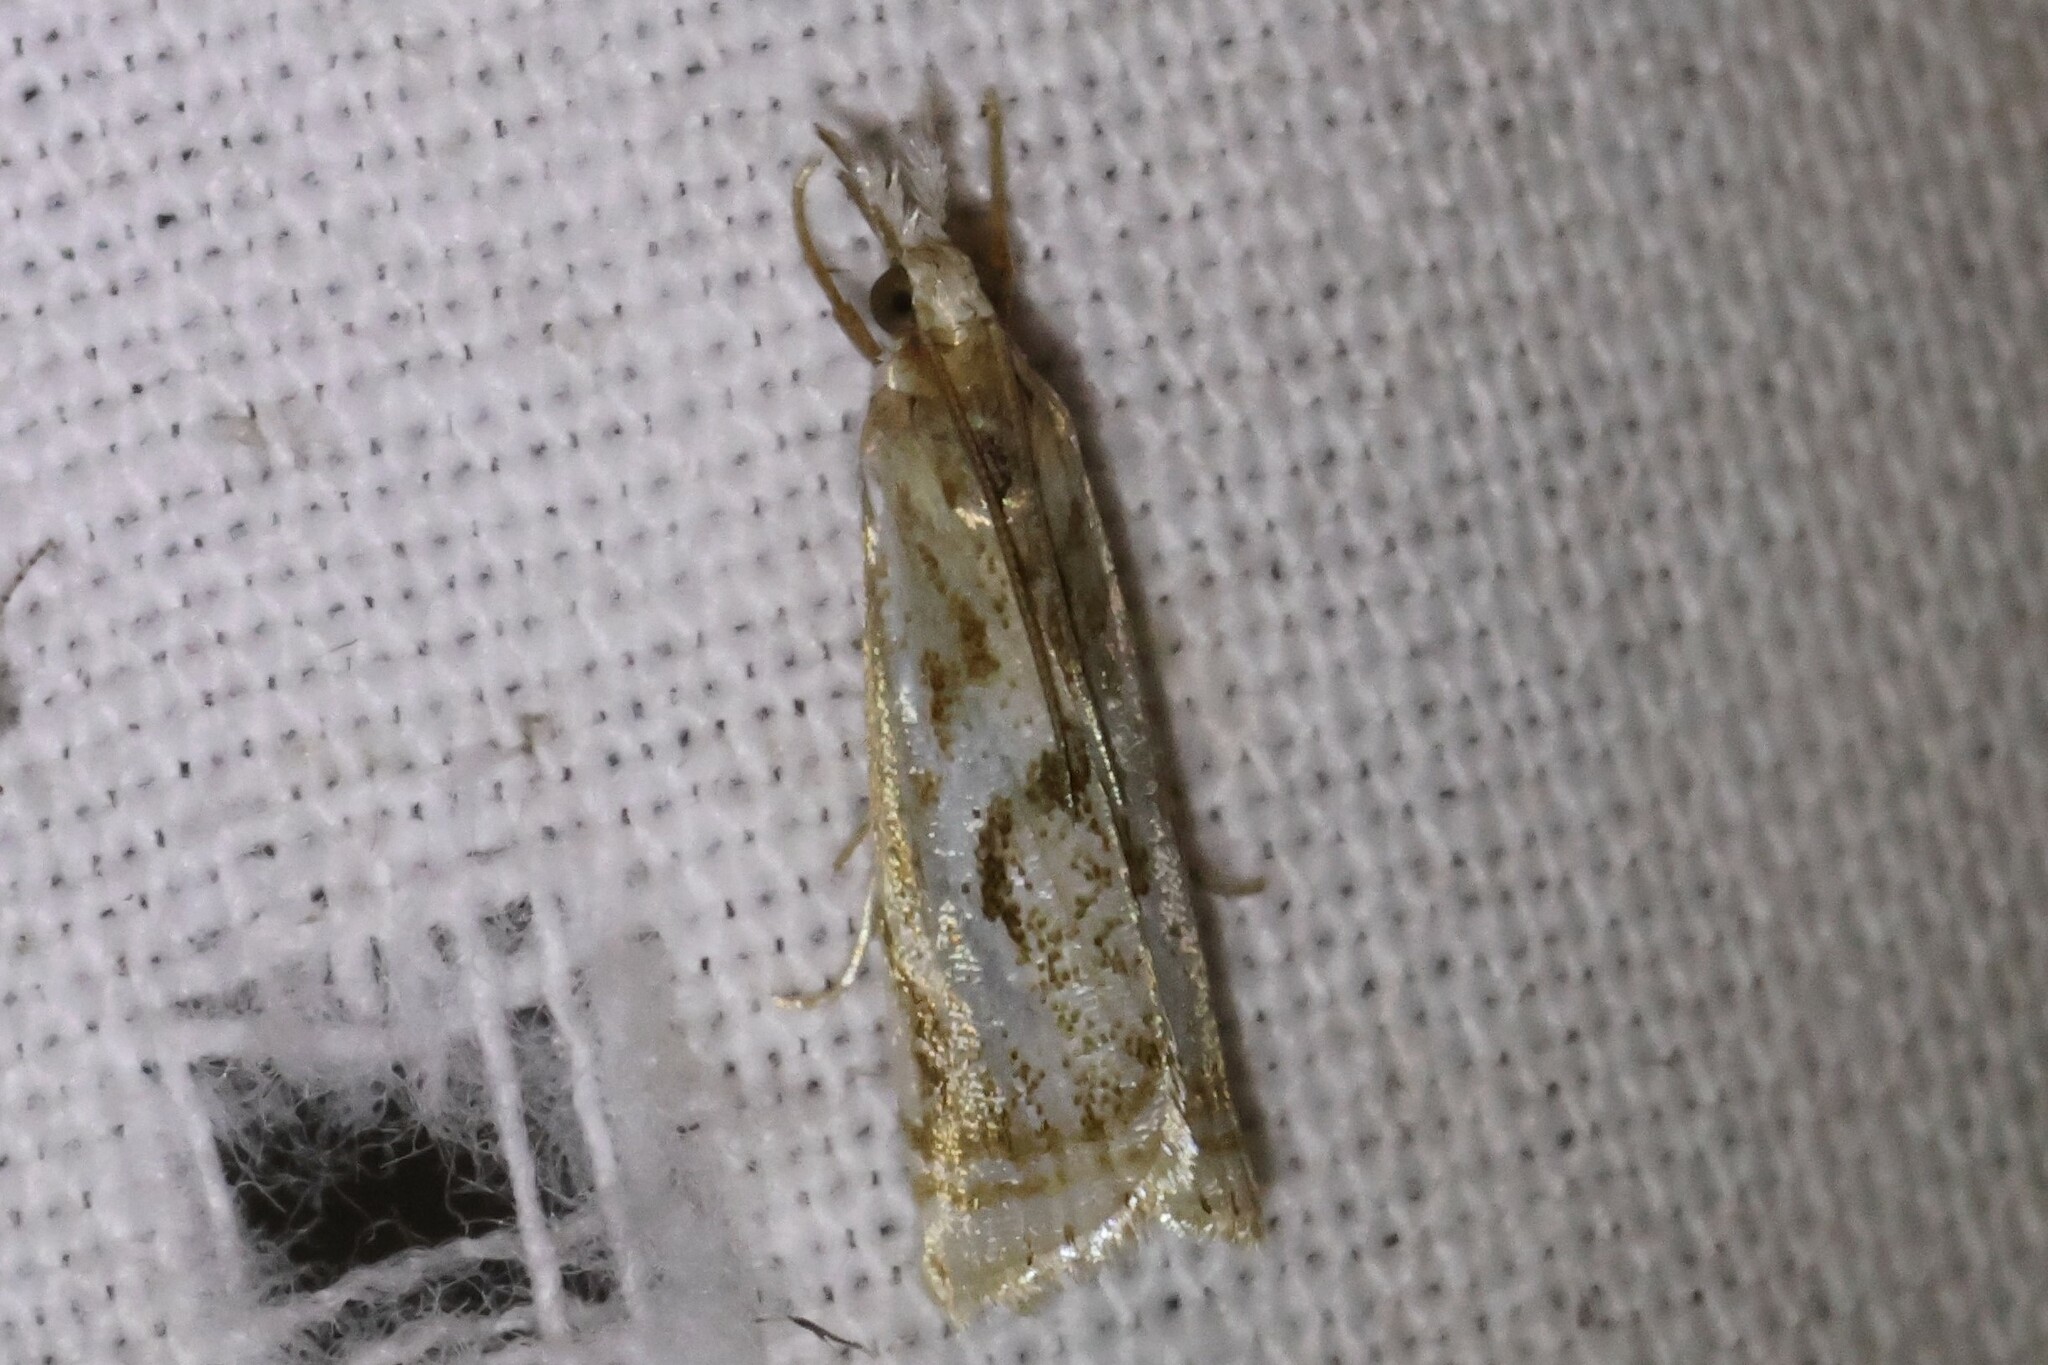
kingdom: Animalia
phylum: Arthropoda
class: Insecta
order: Lepidoptera
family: Crambidae
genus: Microcrambus
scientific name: Microcrambus elegans
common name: Elegant grass-veneer
